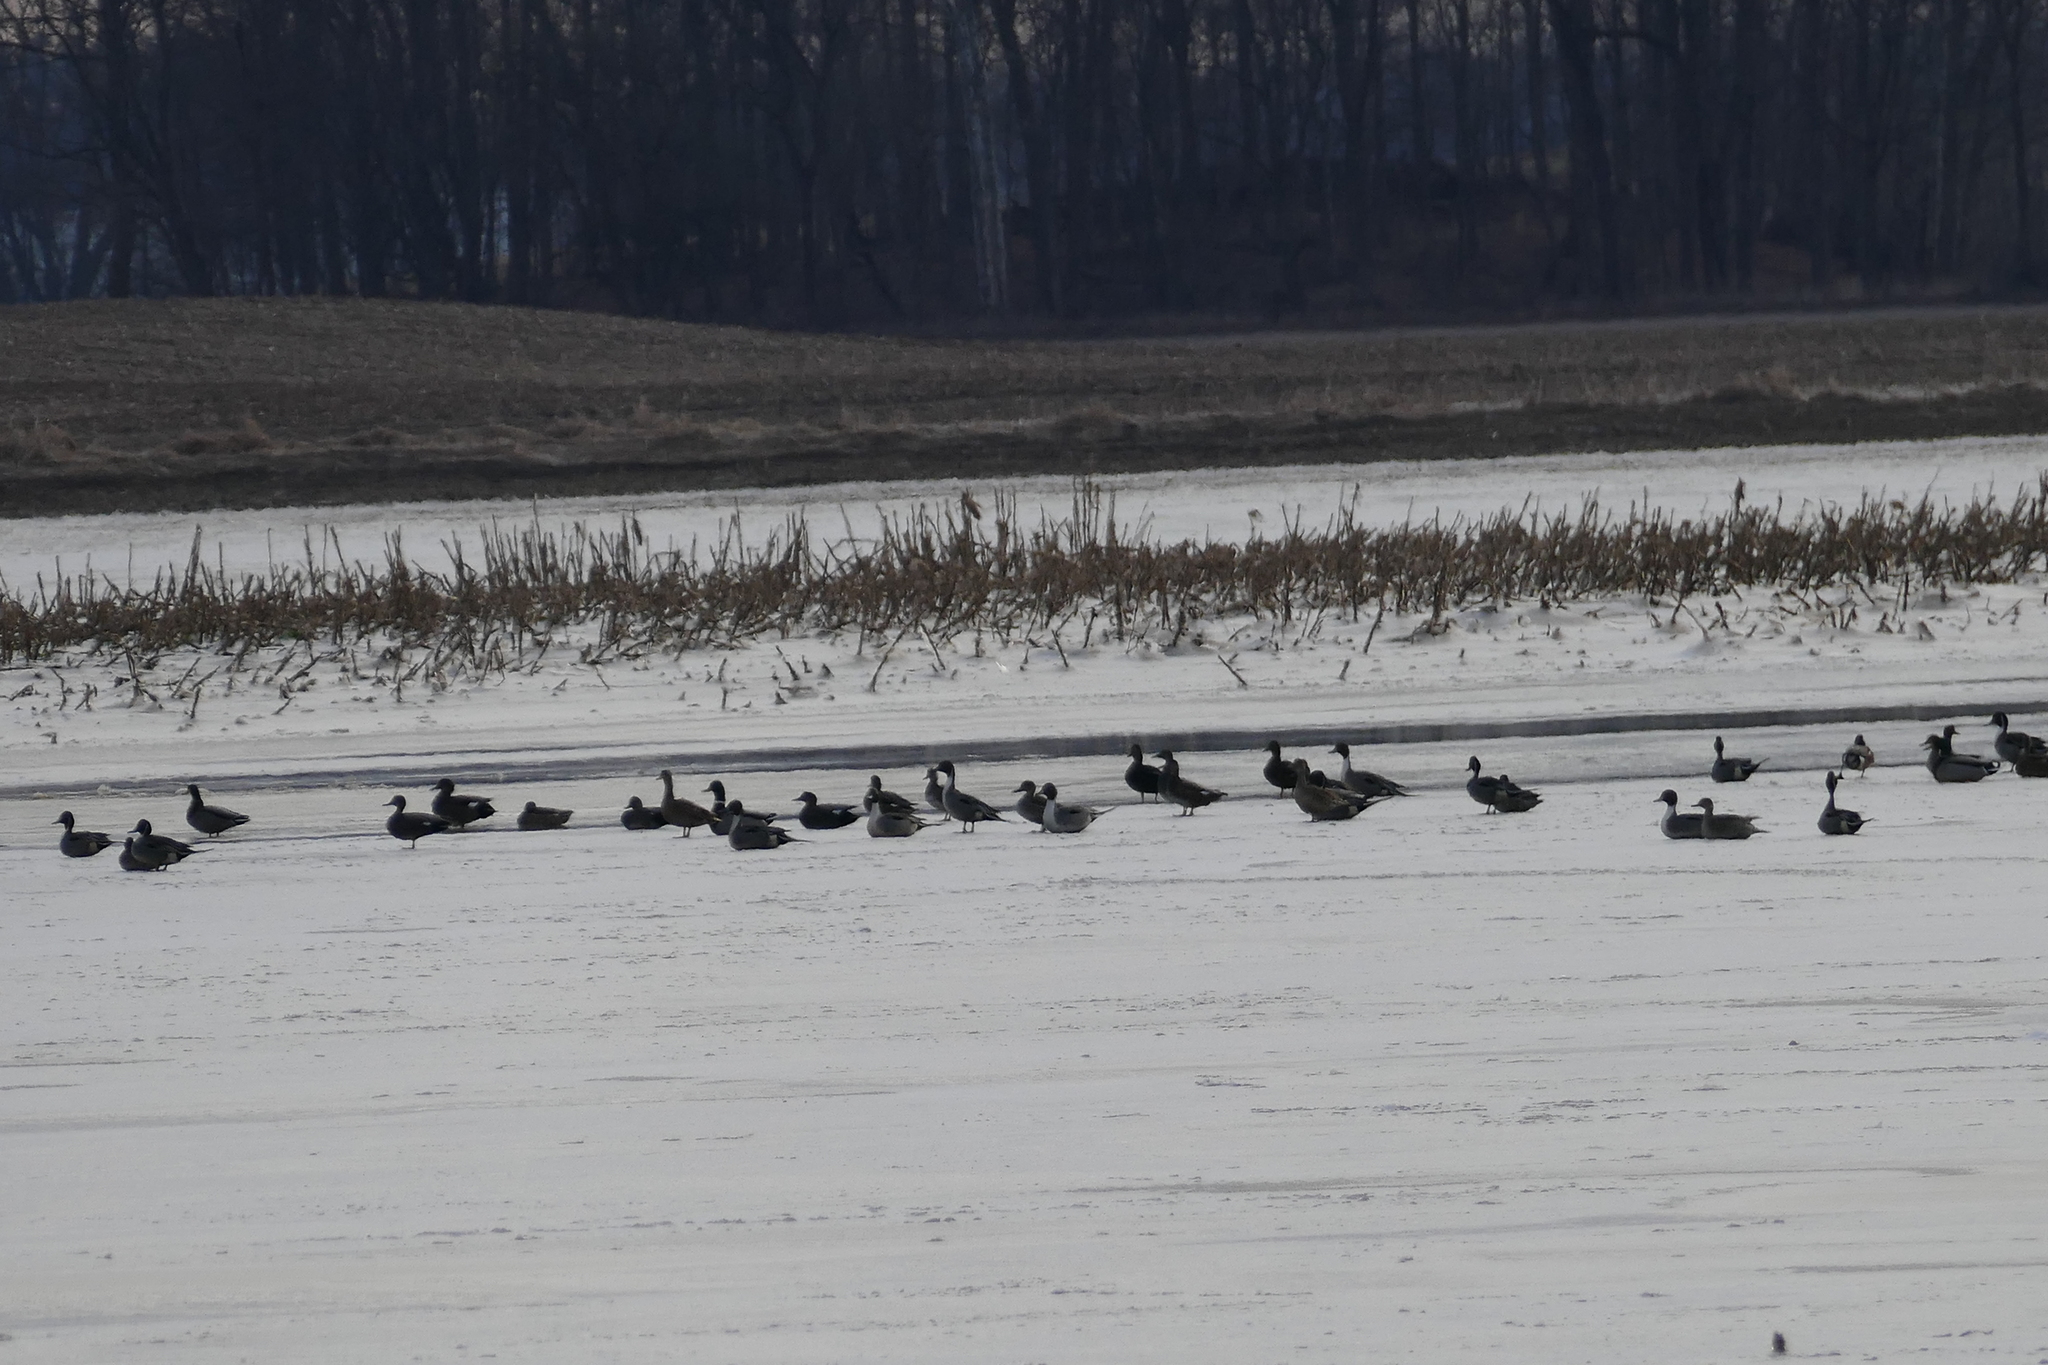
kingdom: Animalia
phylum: Chordata
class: Aves
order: Anseriformes
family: Anatidae
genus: Mareca
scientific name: Mareca strepera
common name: Gadwall
